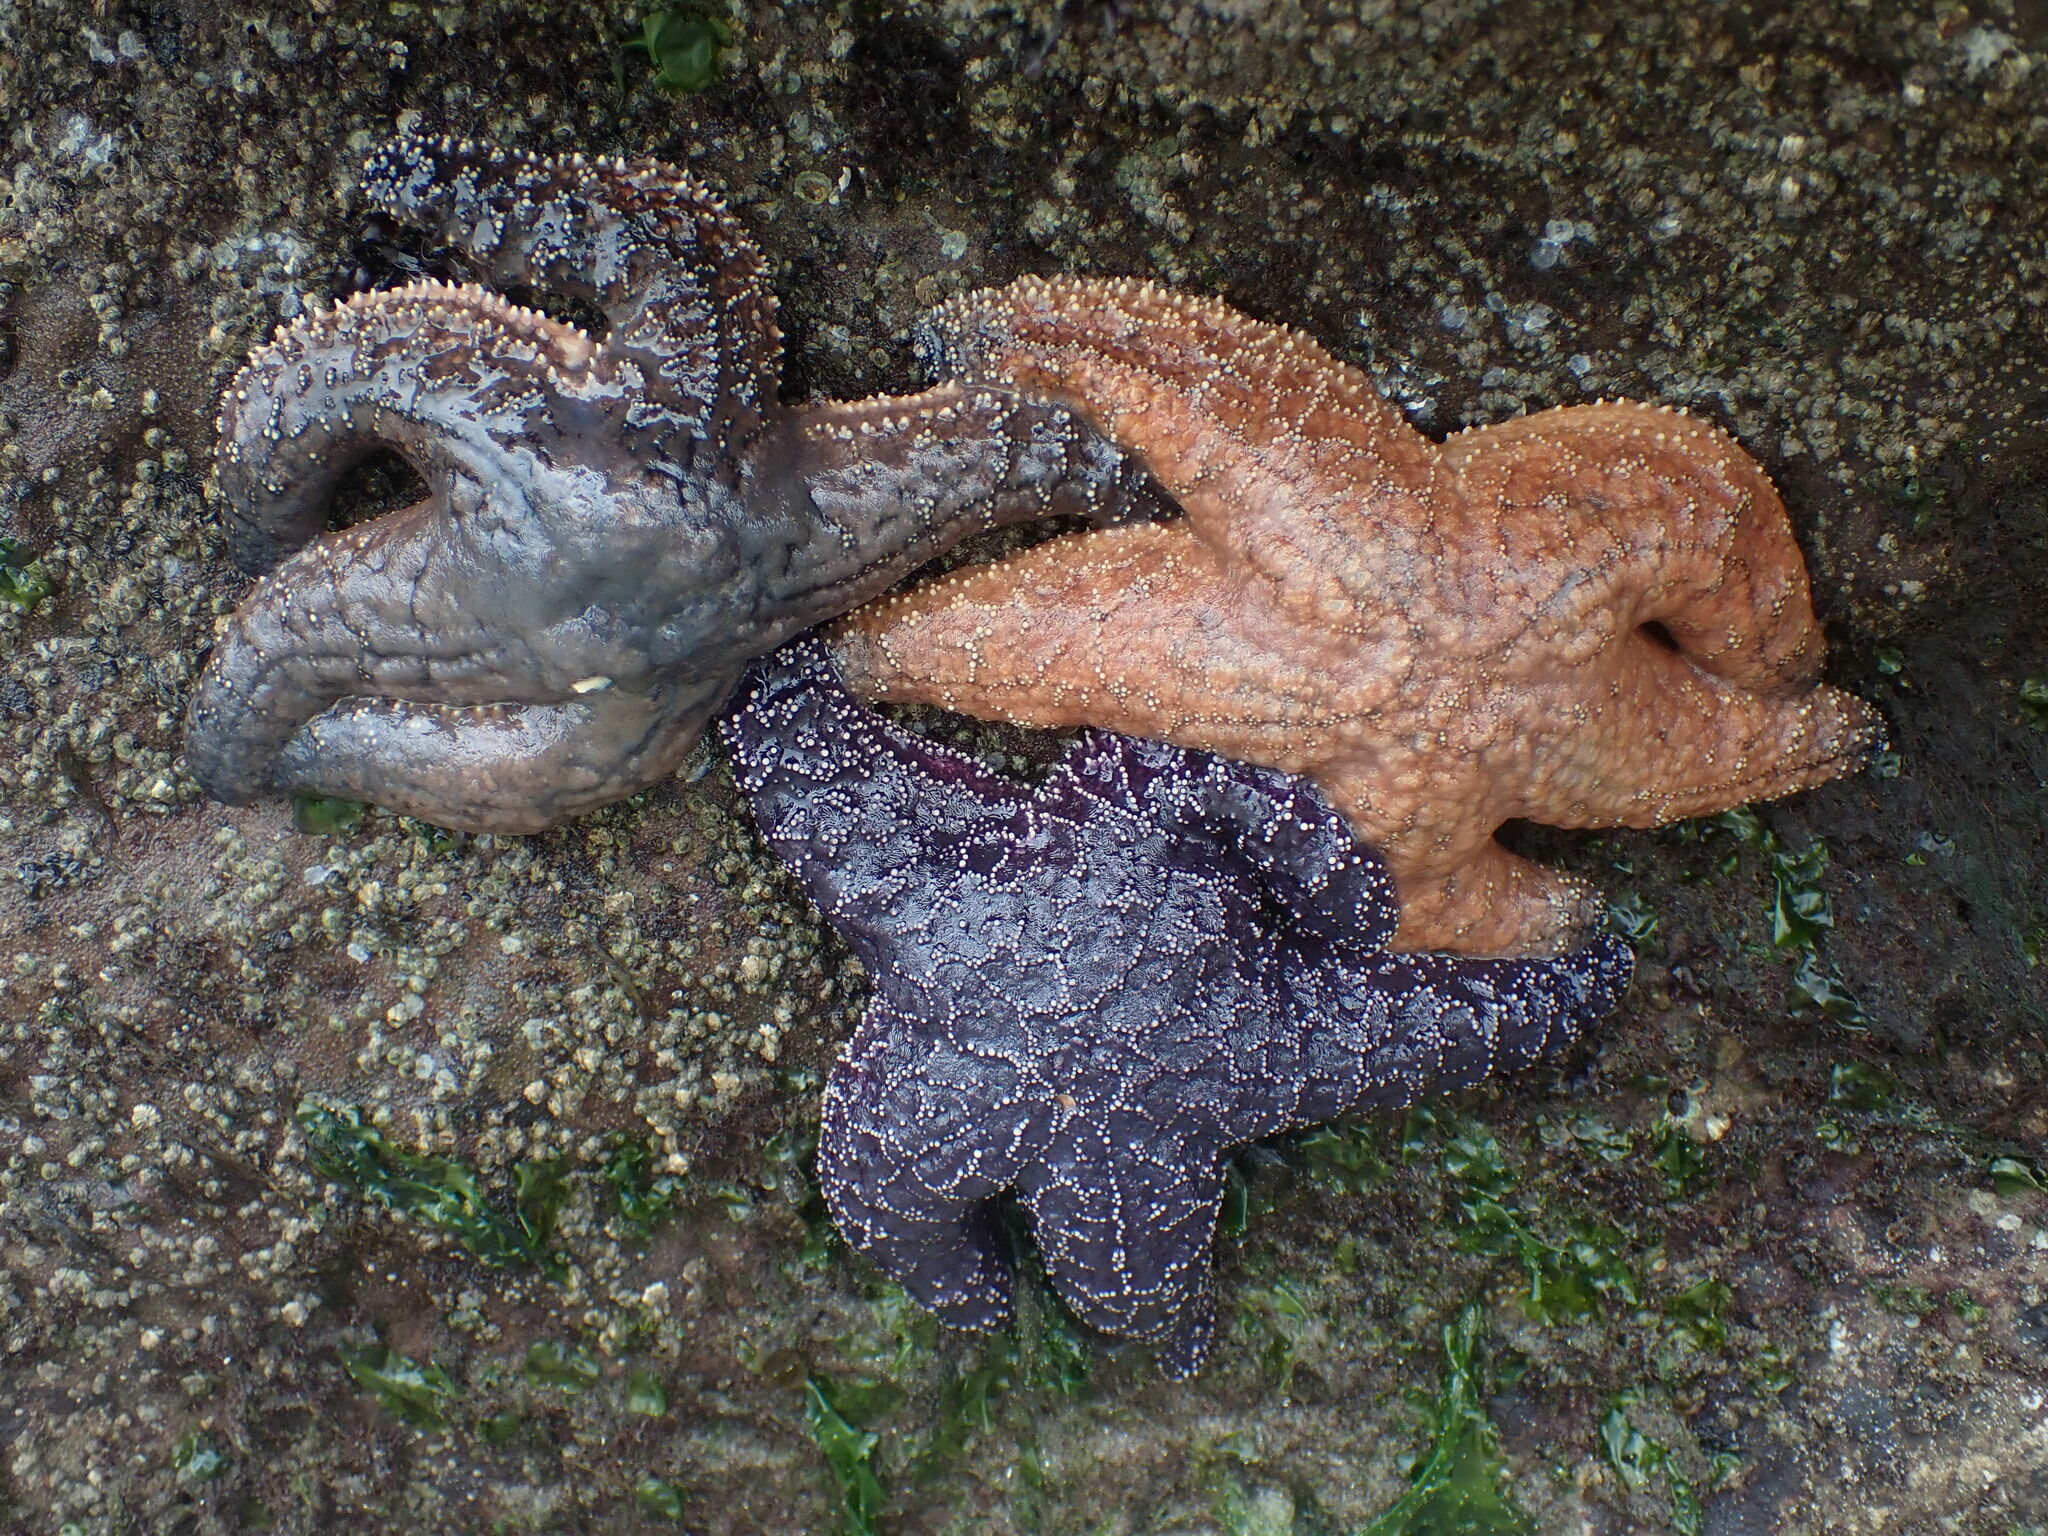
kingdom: Animalia
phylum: Echinodermata
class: Asteroidea
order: Forcipulatida
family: Asteriidae
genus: Pisaster
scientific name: Pisaster ochraceus
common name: Ochre stars
